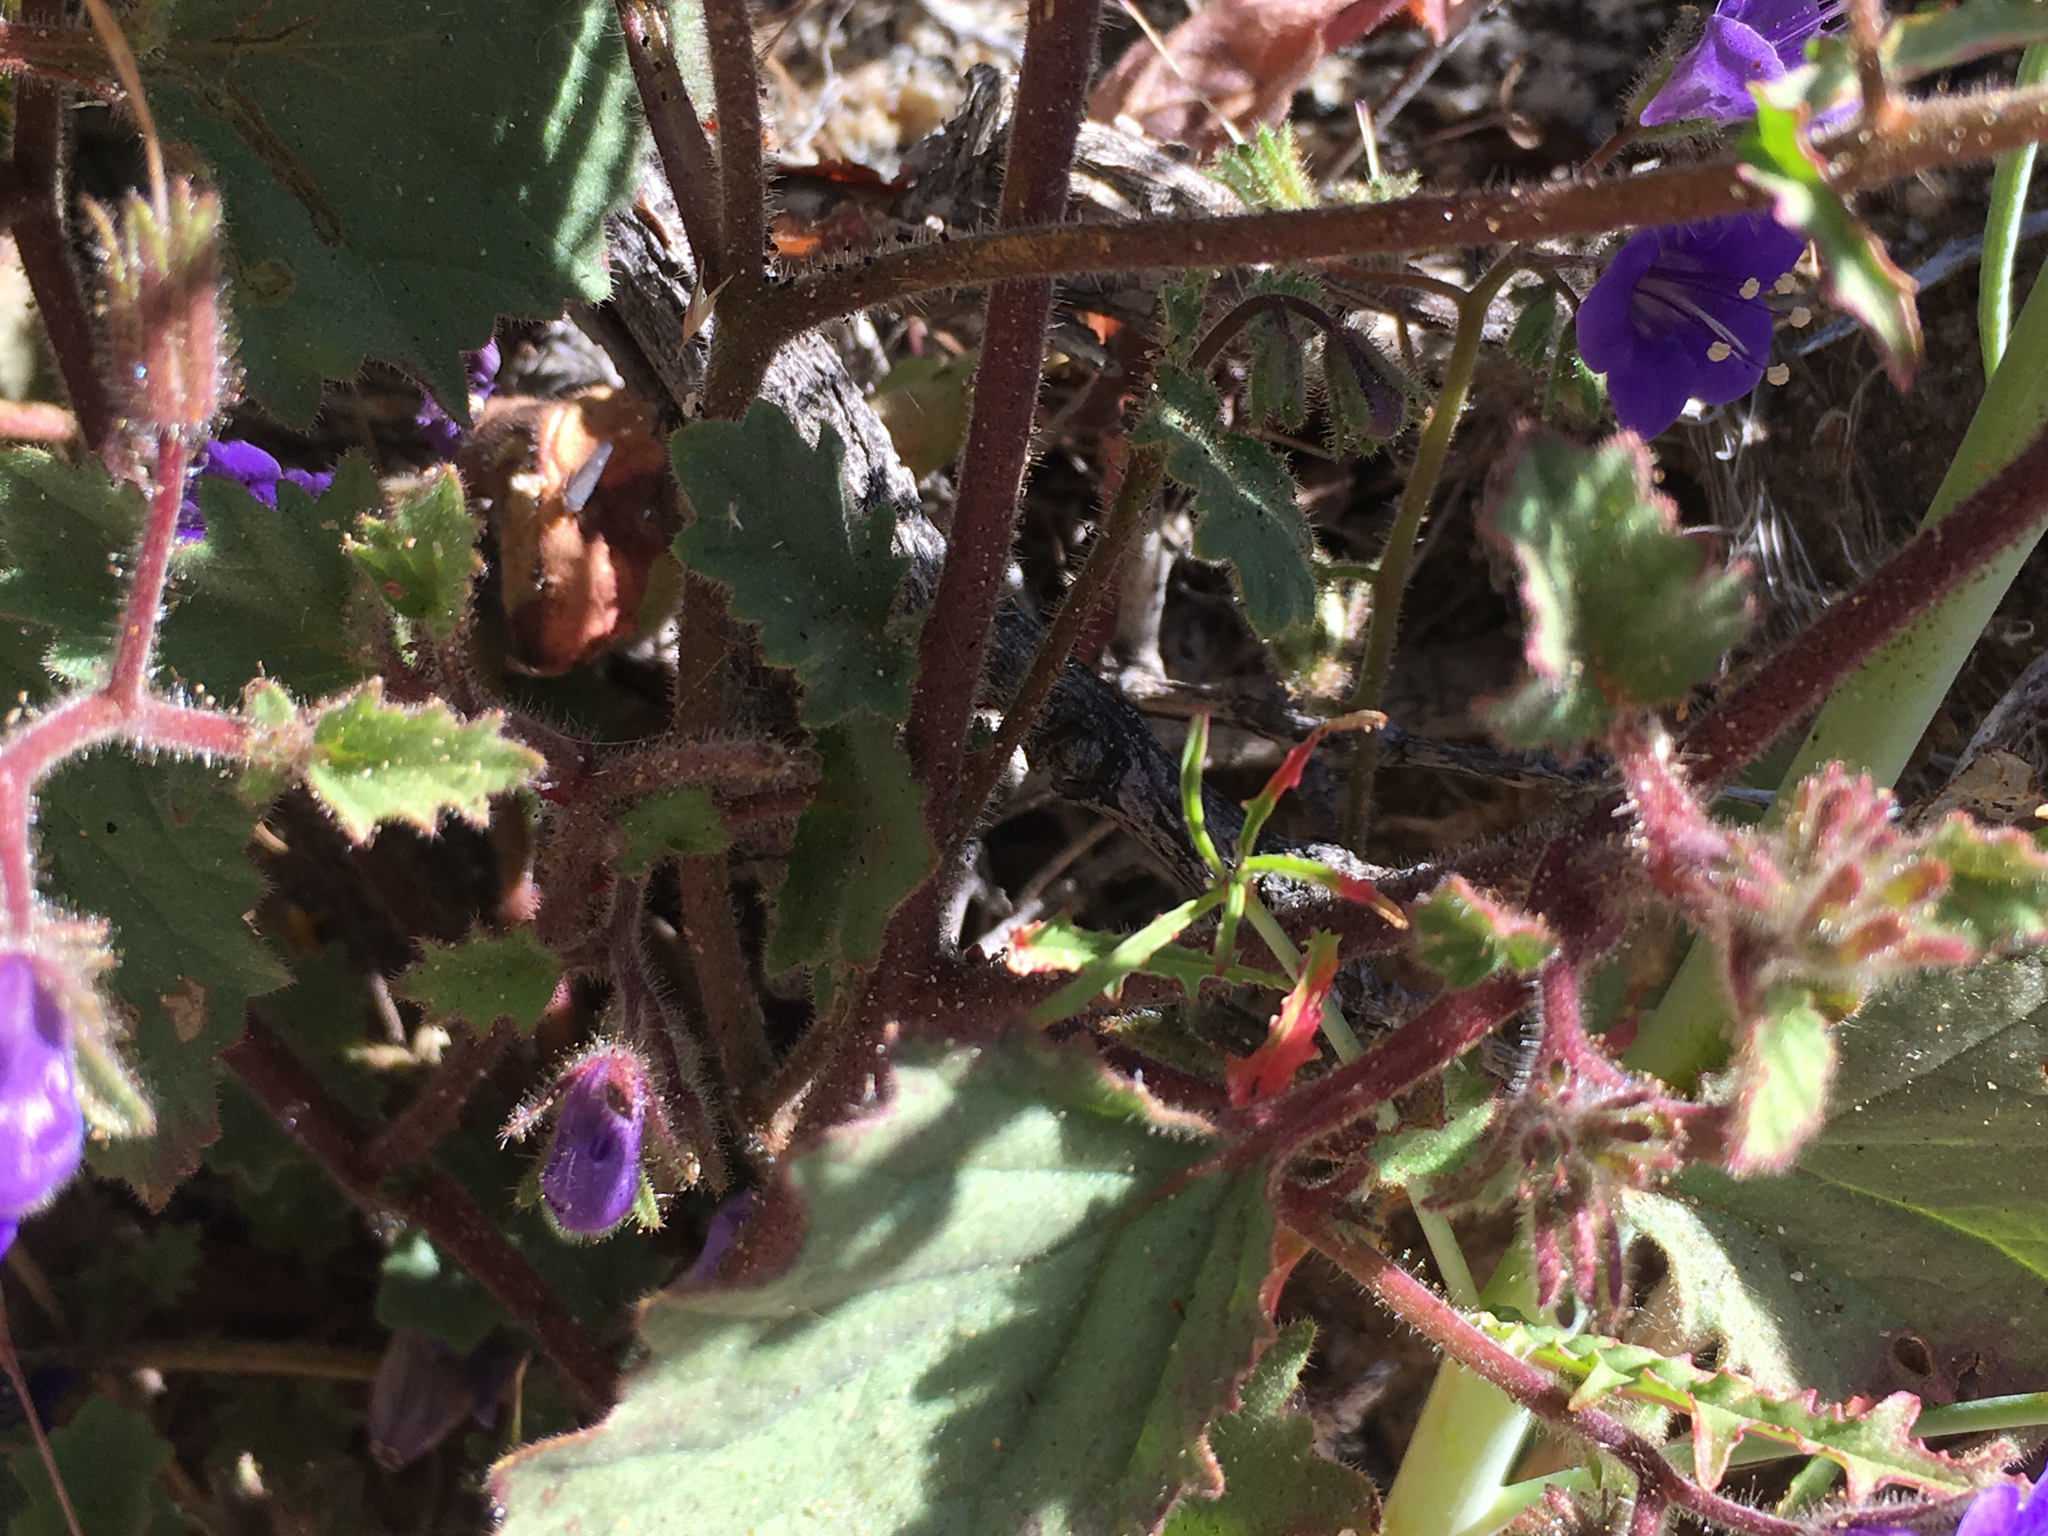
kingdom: Plantae
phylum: Tracheophyta
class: Magnoliopsida
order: Boraginales
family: Hydrophyllaceae
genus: Phacelia
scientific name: Phacelia minor
